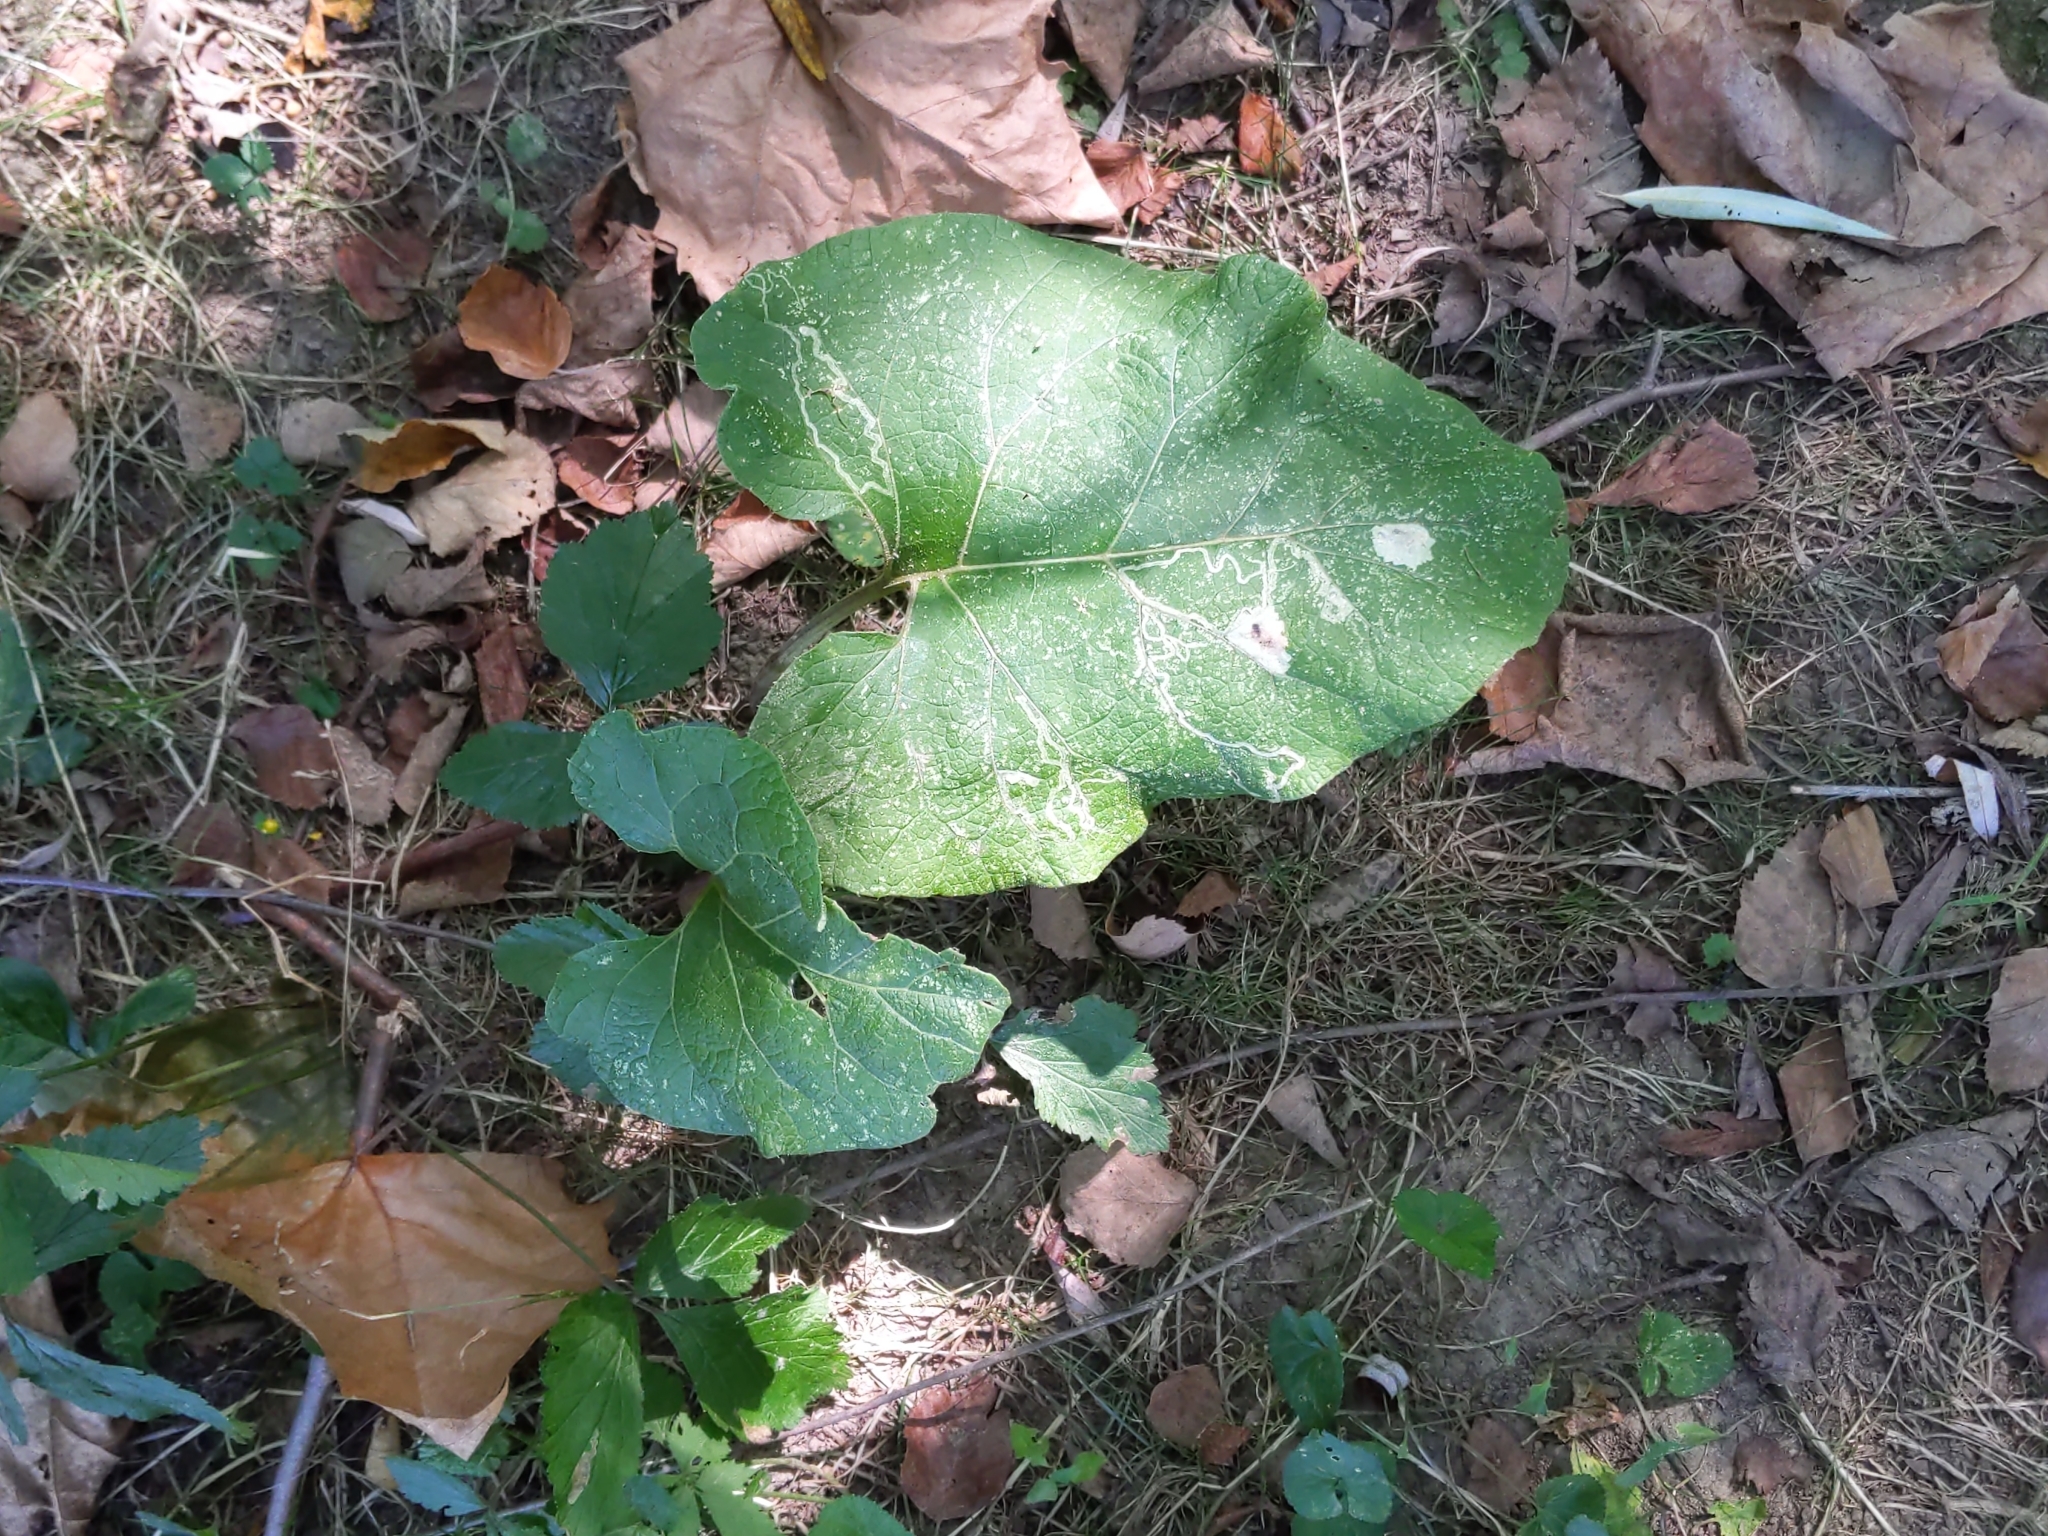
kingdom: Plantae
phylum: Tracheophyta
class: Magnoliopsida
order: Asterales
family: Asteraceae
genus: Arctium
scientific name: Arctium
